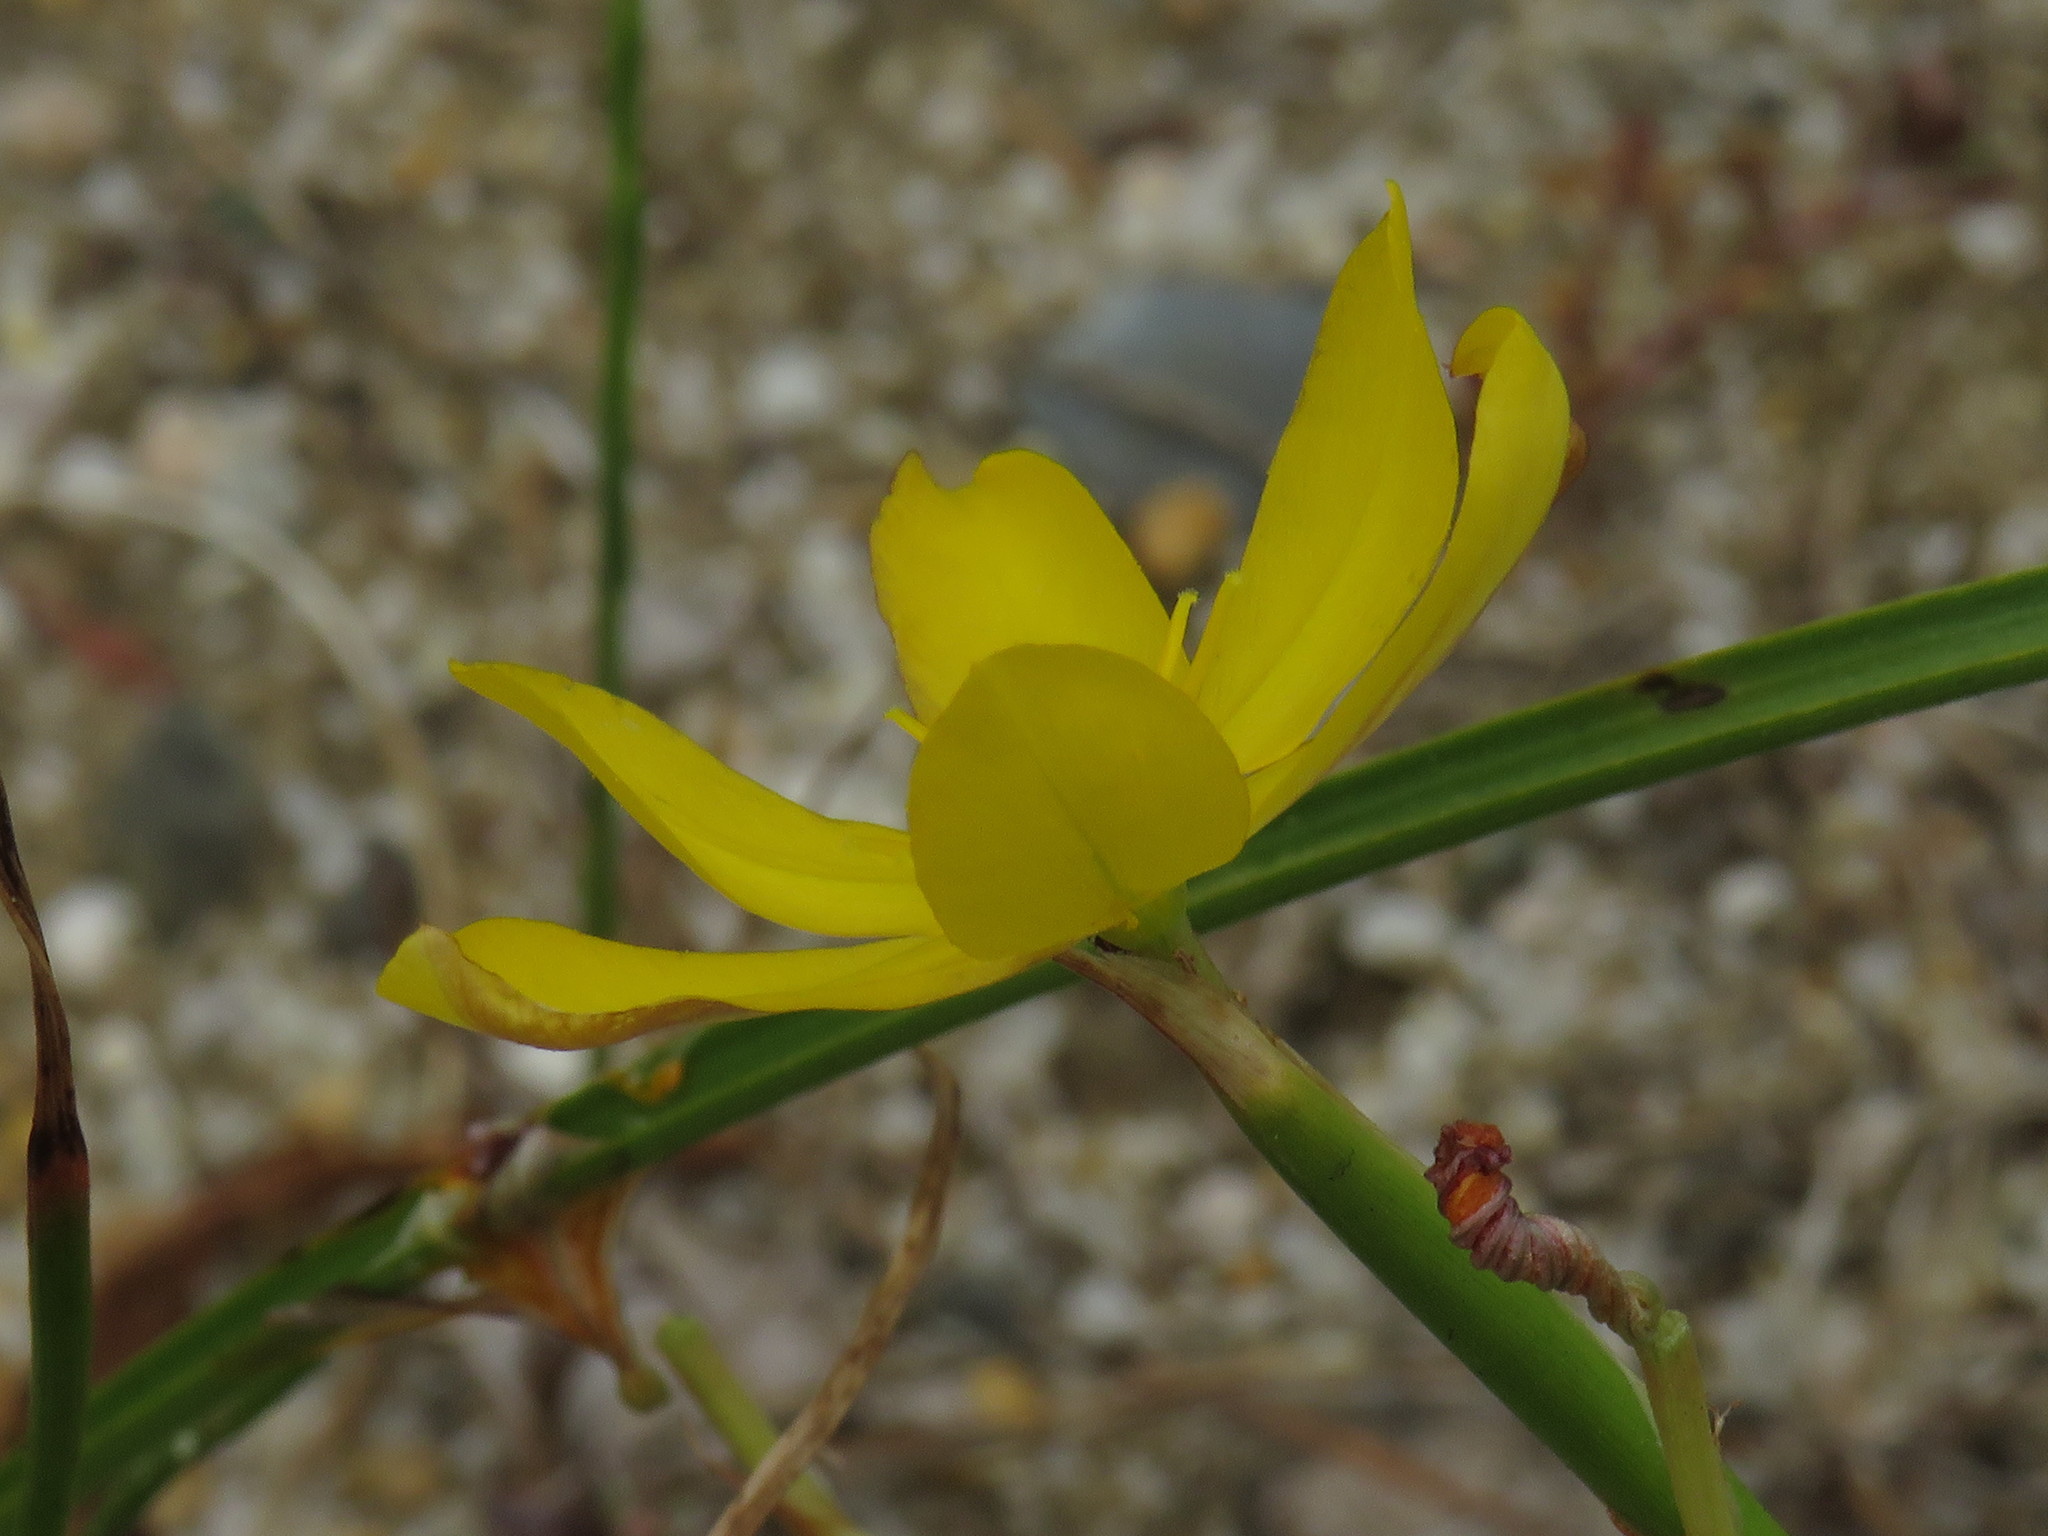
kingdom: Plantae
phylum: Tracheophyta
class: Liliopsida
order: Asparagales
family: Iridaceae
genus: Moraea
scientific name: Moraea lewisiae
